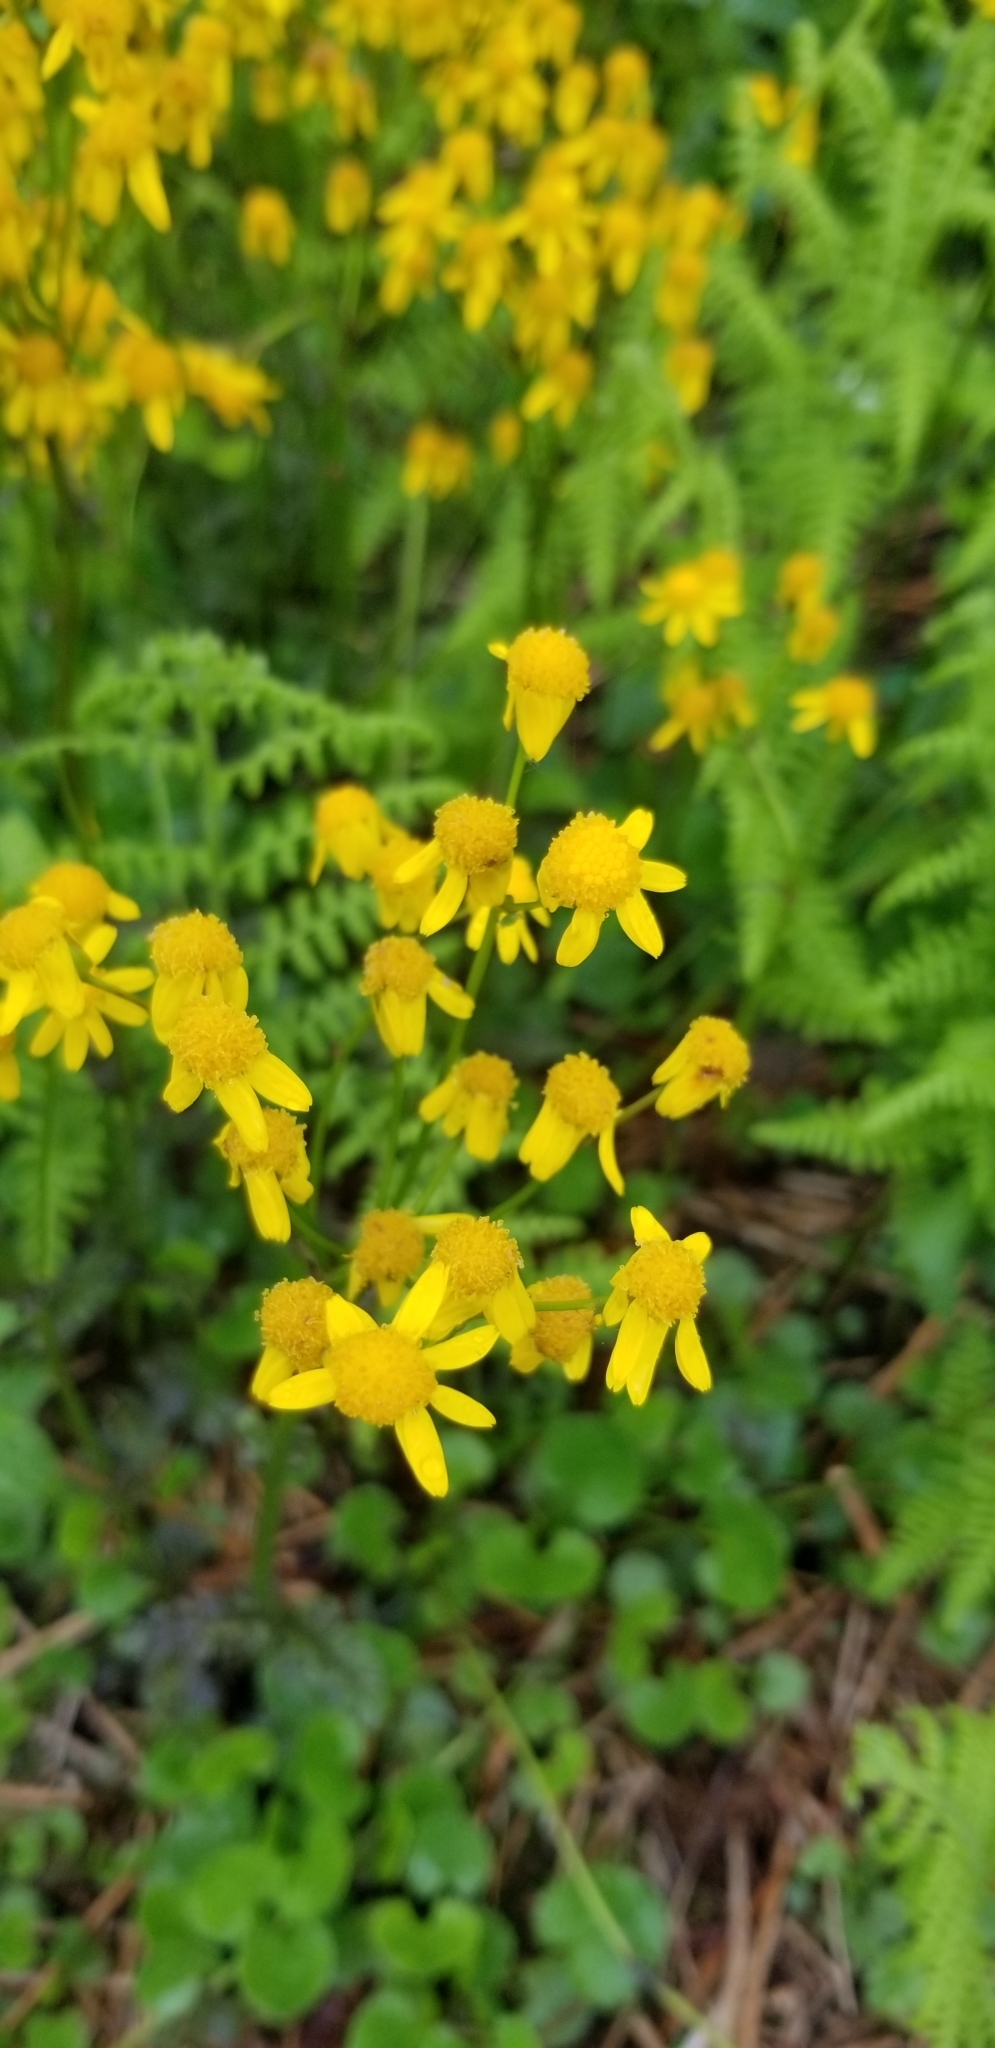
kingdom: Plantae
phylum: Tracheophyta
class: Magnoliopsida
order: Asterales
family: Asteraceae
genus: Packera
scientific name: Packera aurea
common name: Golden groundsel
